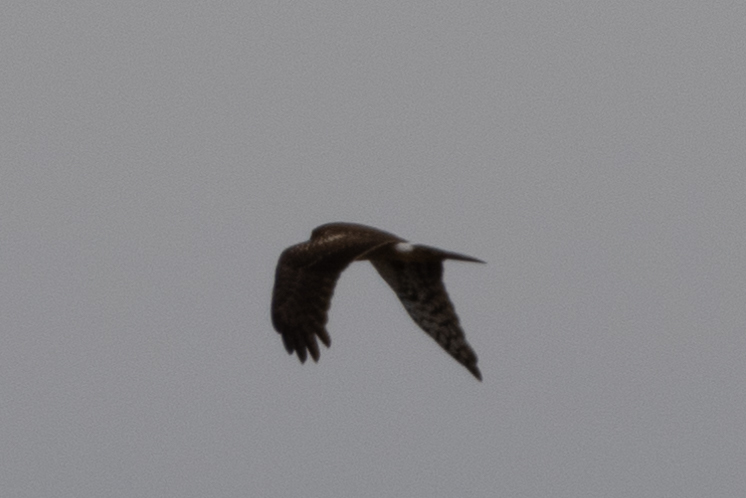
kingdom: Animalia
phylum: Chordata
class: Aves
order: Accipitriformes
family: Accipitridae
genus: Circus
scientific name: Circus cyaneus
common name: Hen harrier
